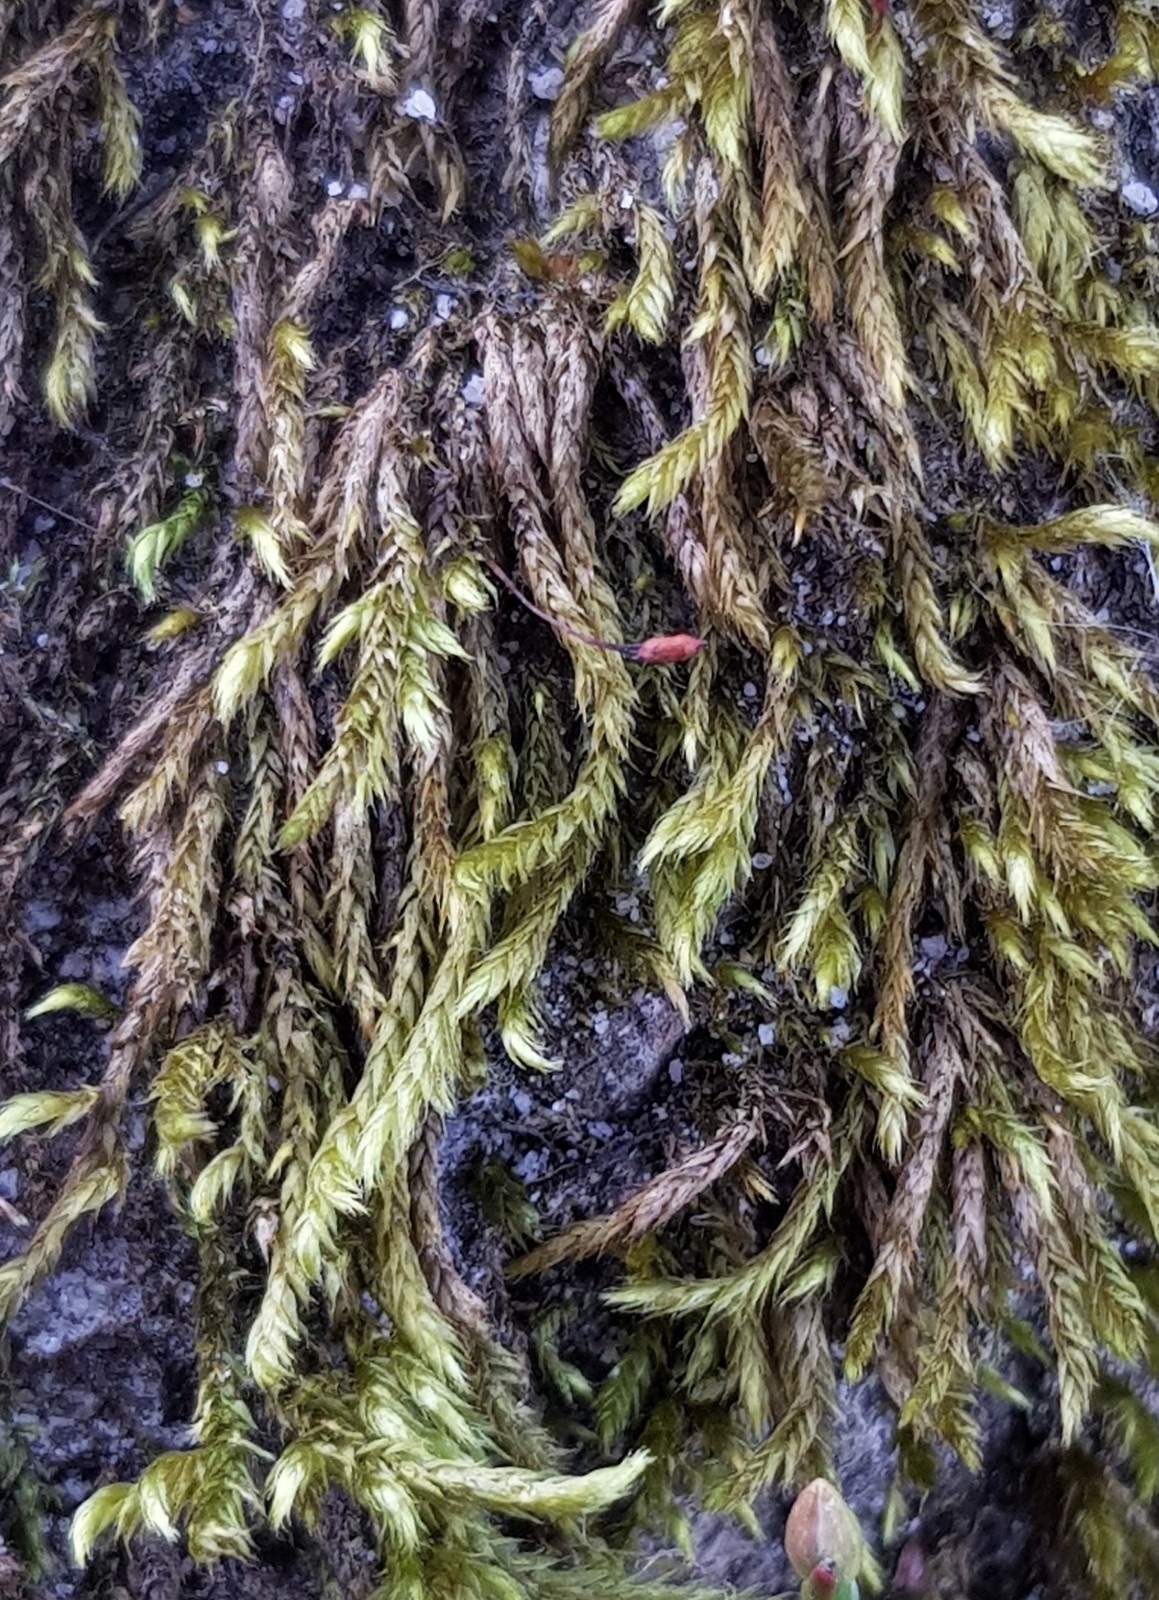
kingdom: Plantae
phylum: Bryophyta
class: Bryopsida
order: Hypnales
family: Brachytheciaceae
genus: Brachythecium
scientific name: Brachythecium rutabulum
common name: Rough-stalked feather-moss
